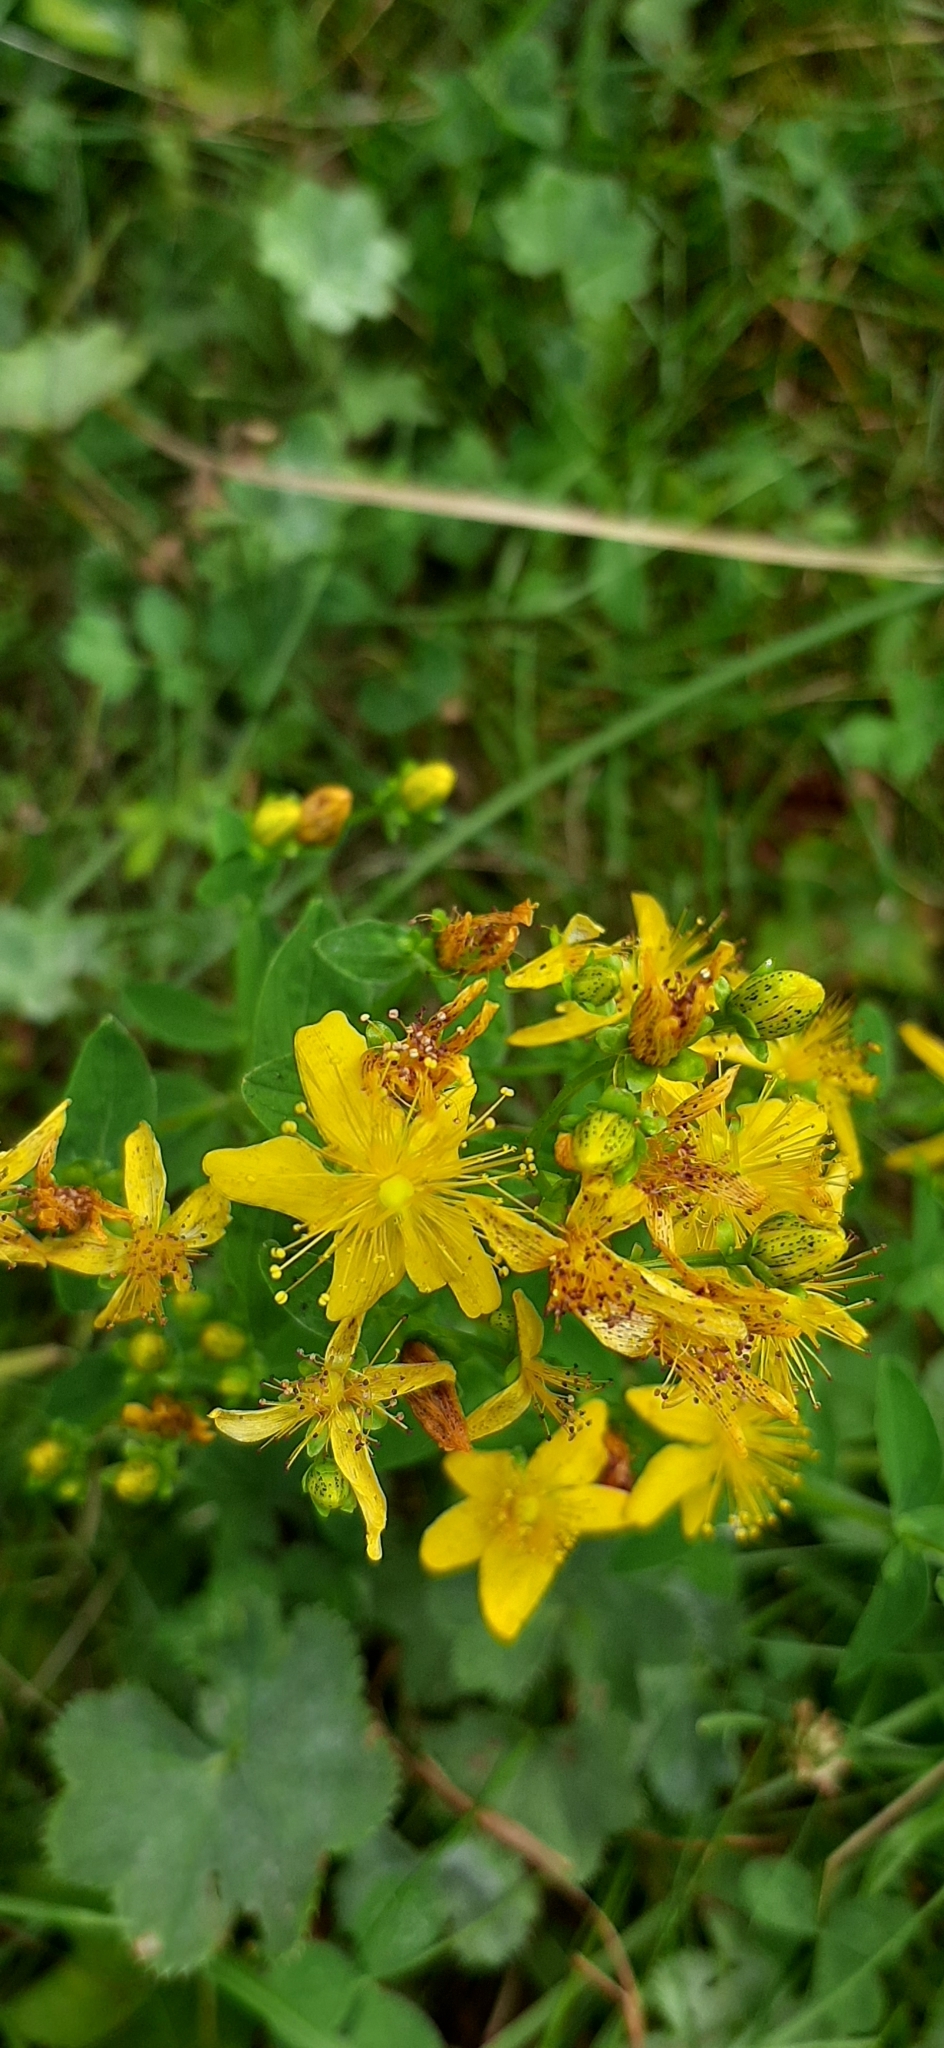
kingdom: Plantae
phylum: Tracheophyta
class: Magnoliopsida
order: Malpighiales
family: Hypericaceae
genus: Hypericum
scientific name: Hypericum maculatum
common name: Imperforate st. john's-wort
